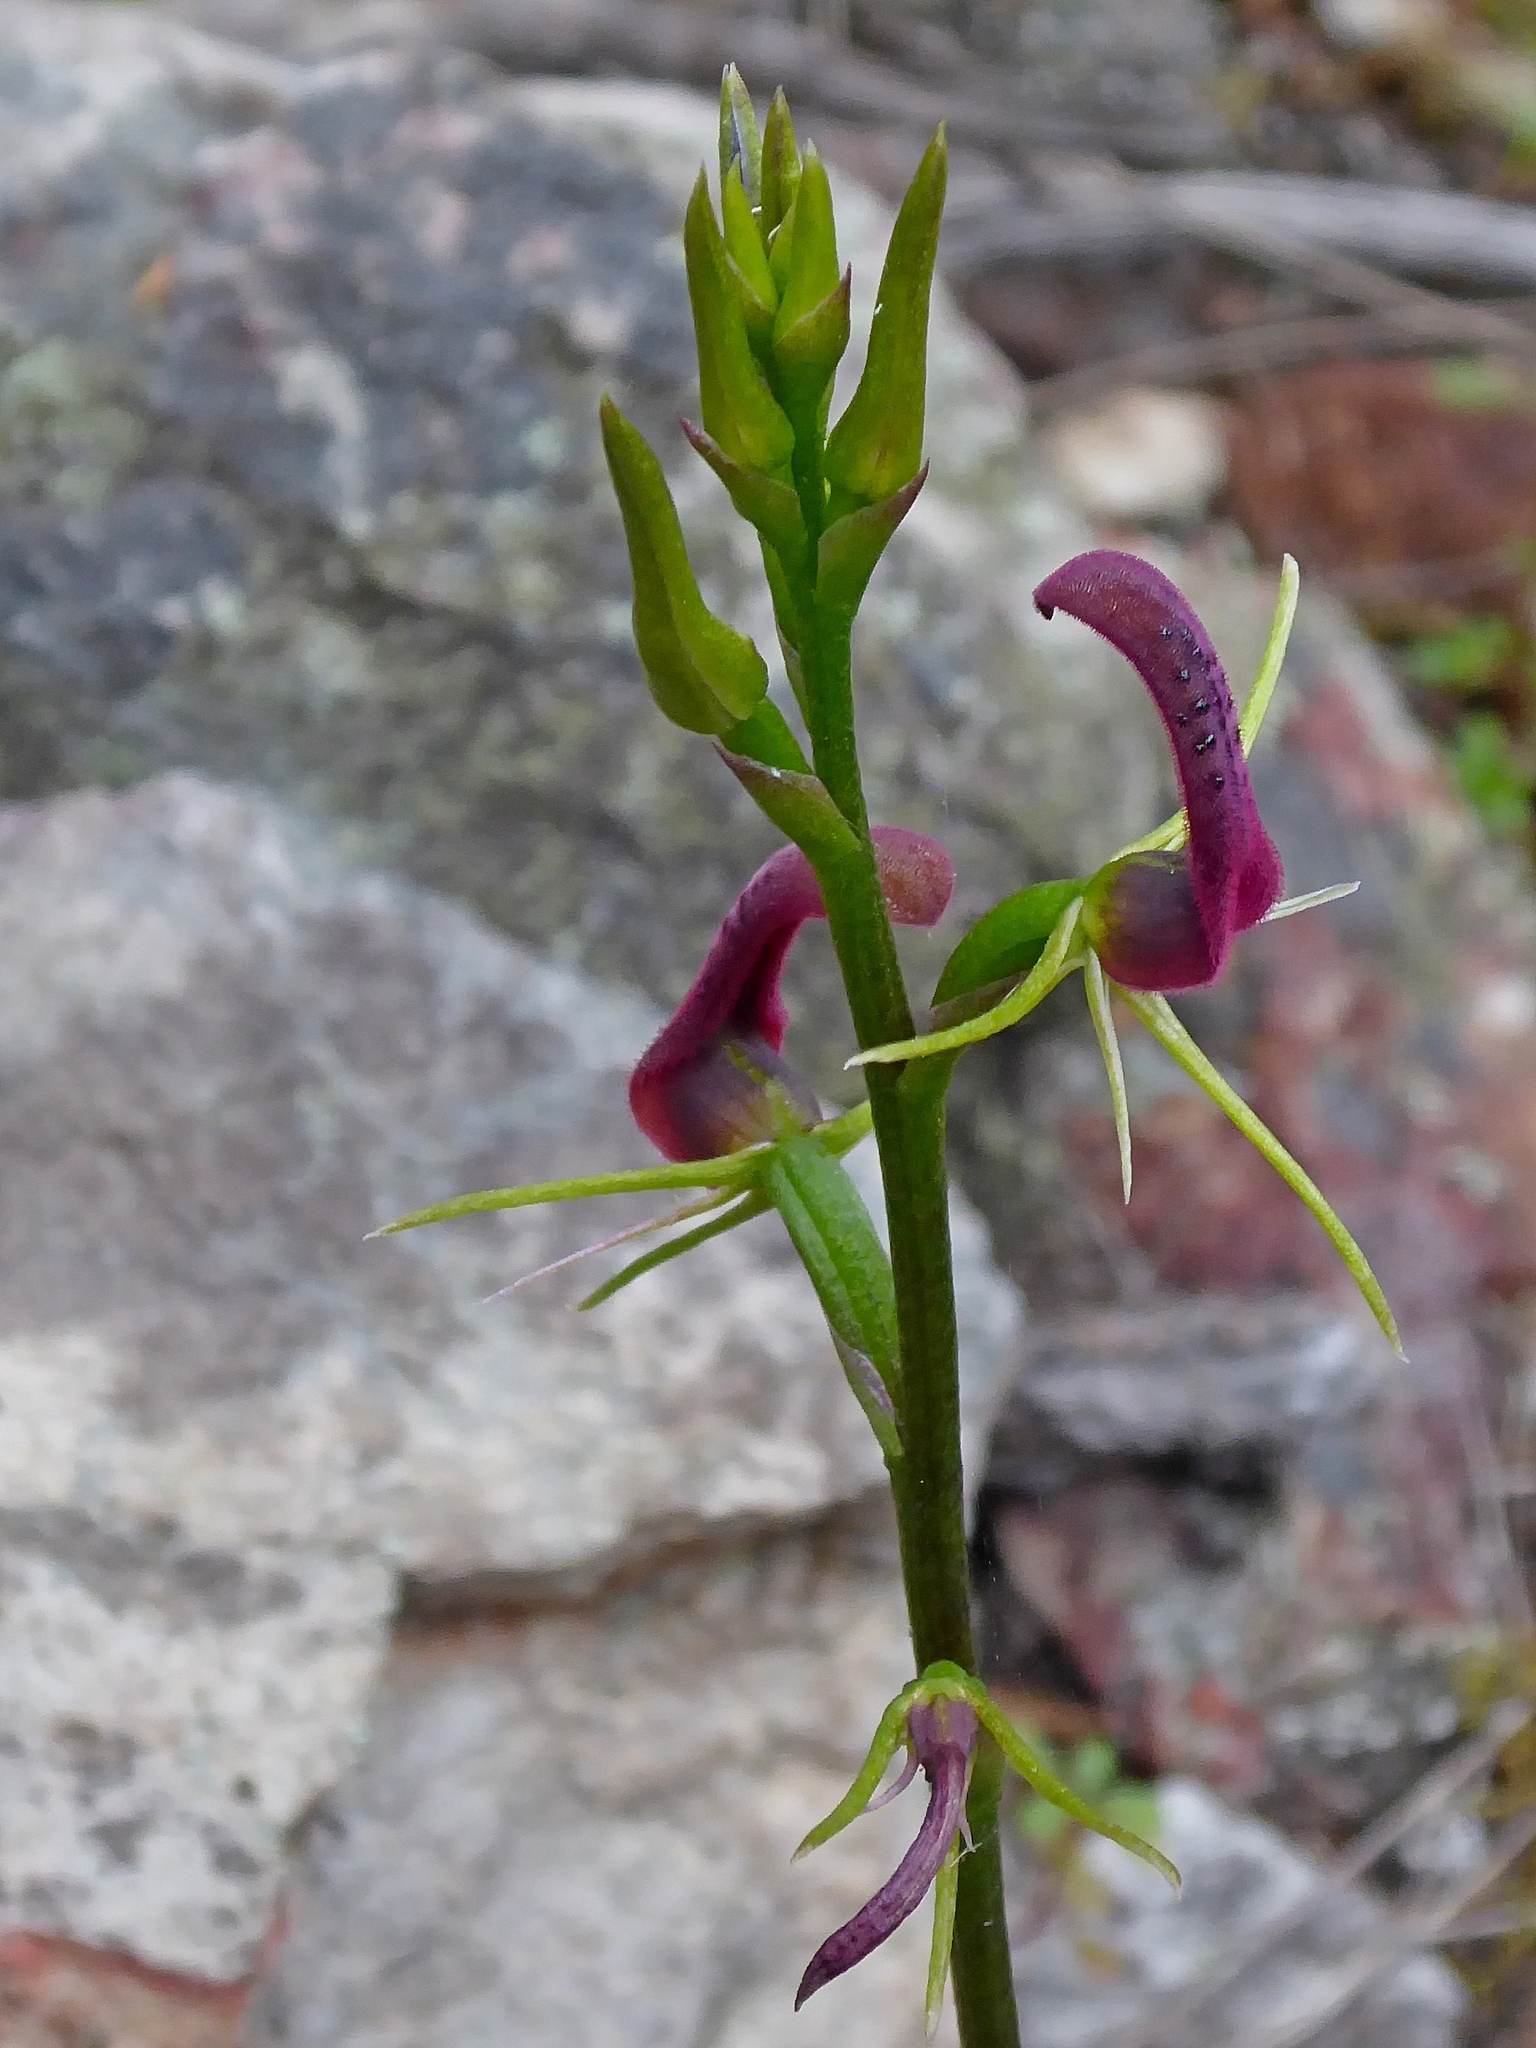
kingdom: Plantae
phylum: Tracheophyta
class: Liliopsida
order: Asparagales
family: Orchidaceae
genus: Cryptostylis
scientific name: Cryptostylis leptochila
